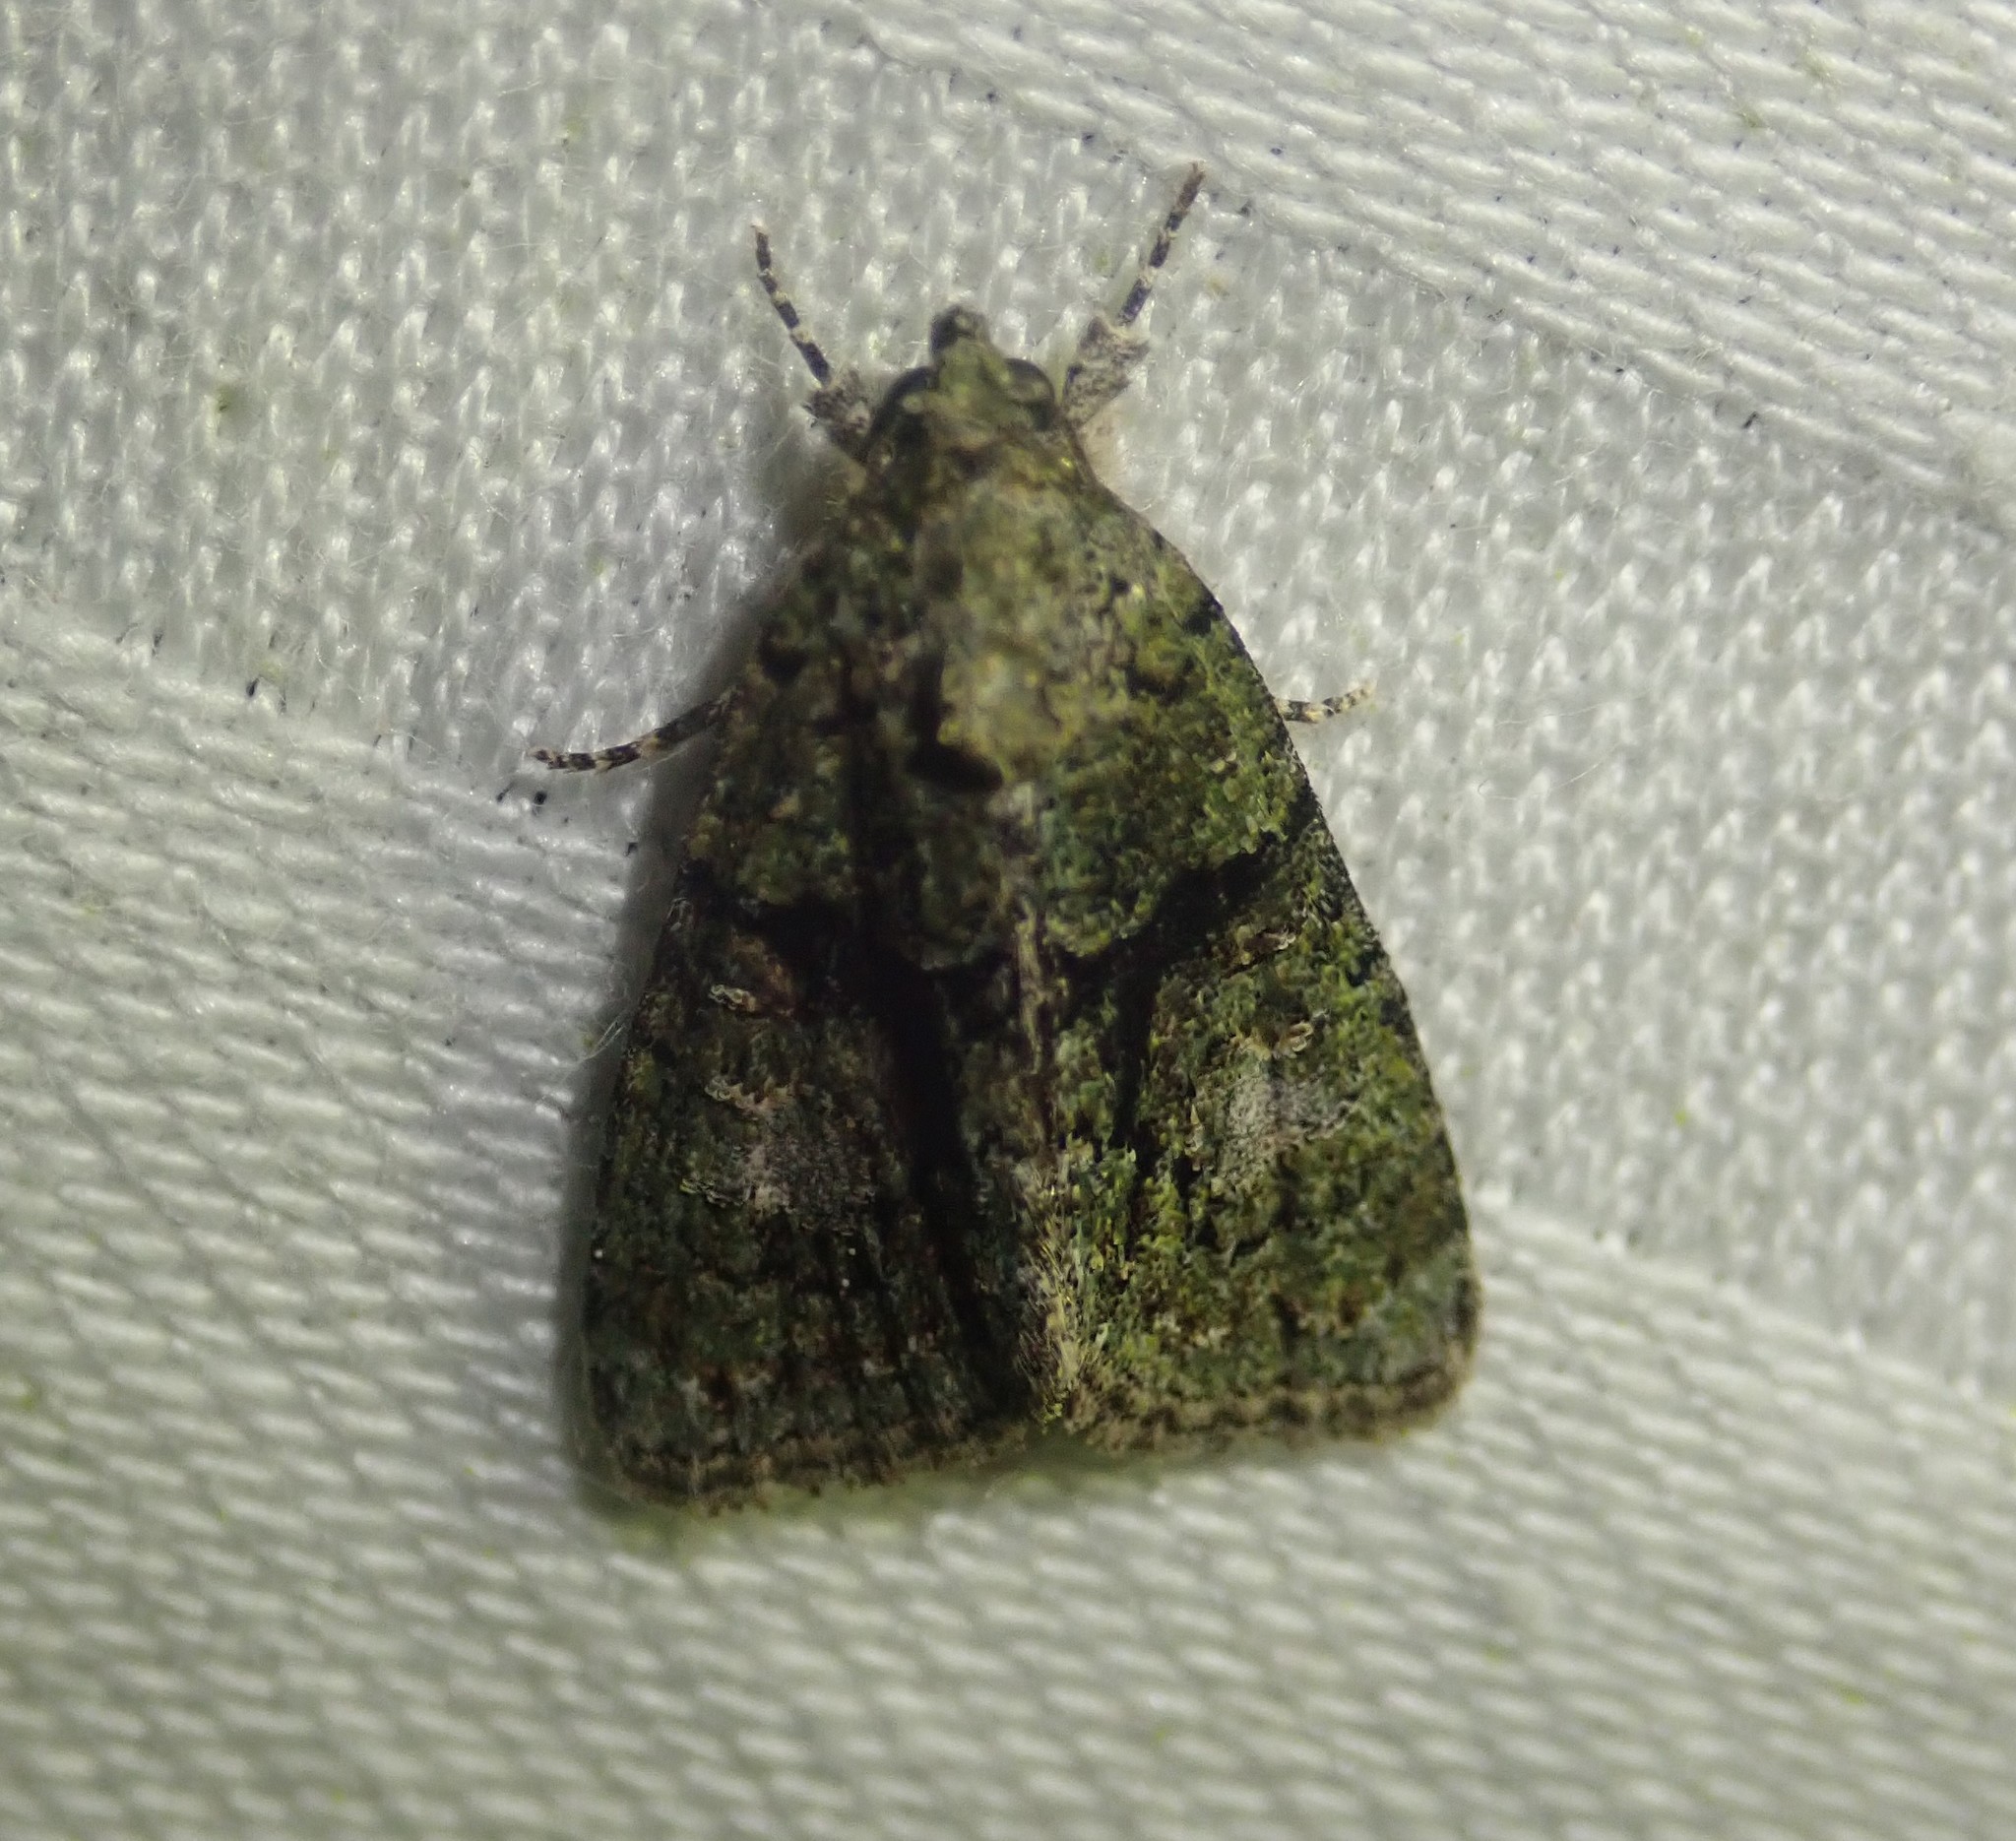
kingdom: Animalia
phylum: Arthropoda
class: Insecta
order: Lepidoptera
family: Noctuidae
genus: Cryphia
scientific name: Cryphia algae
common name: Tree-lichen beauty
